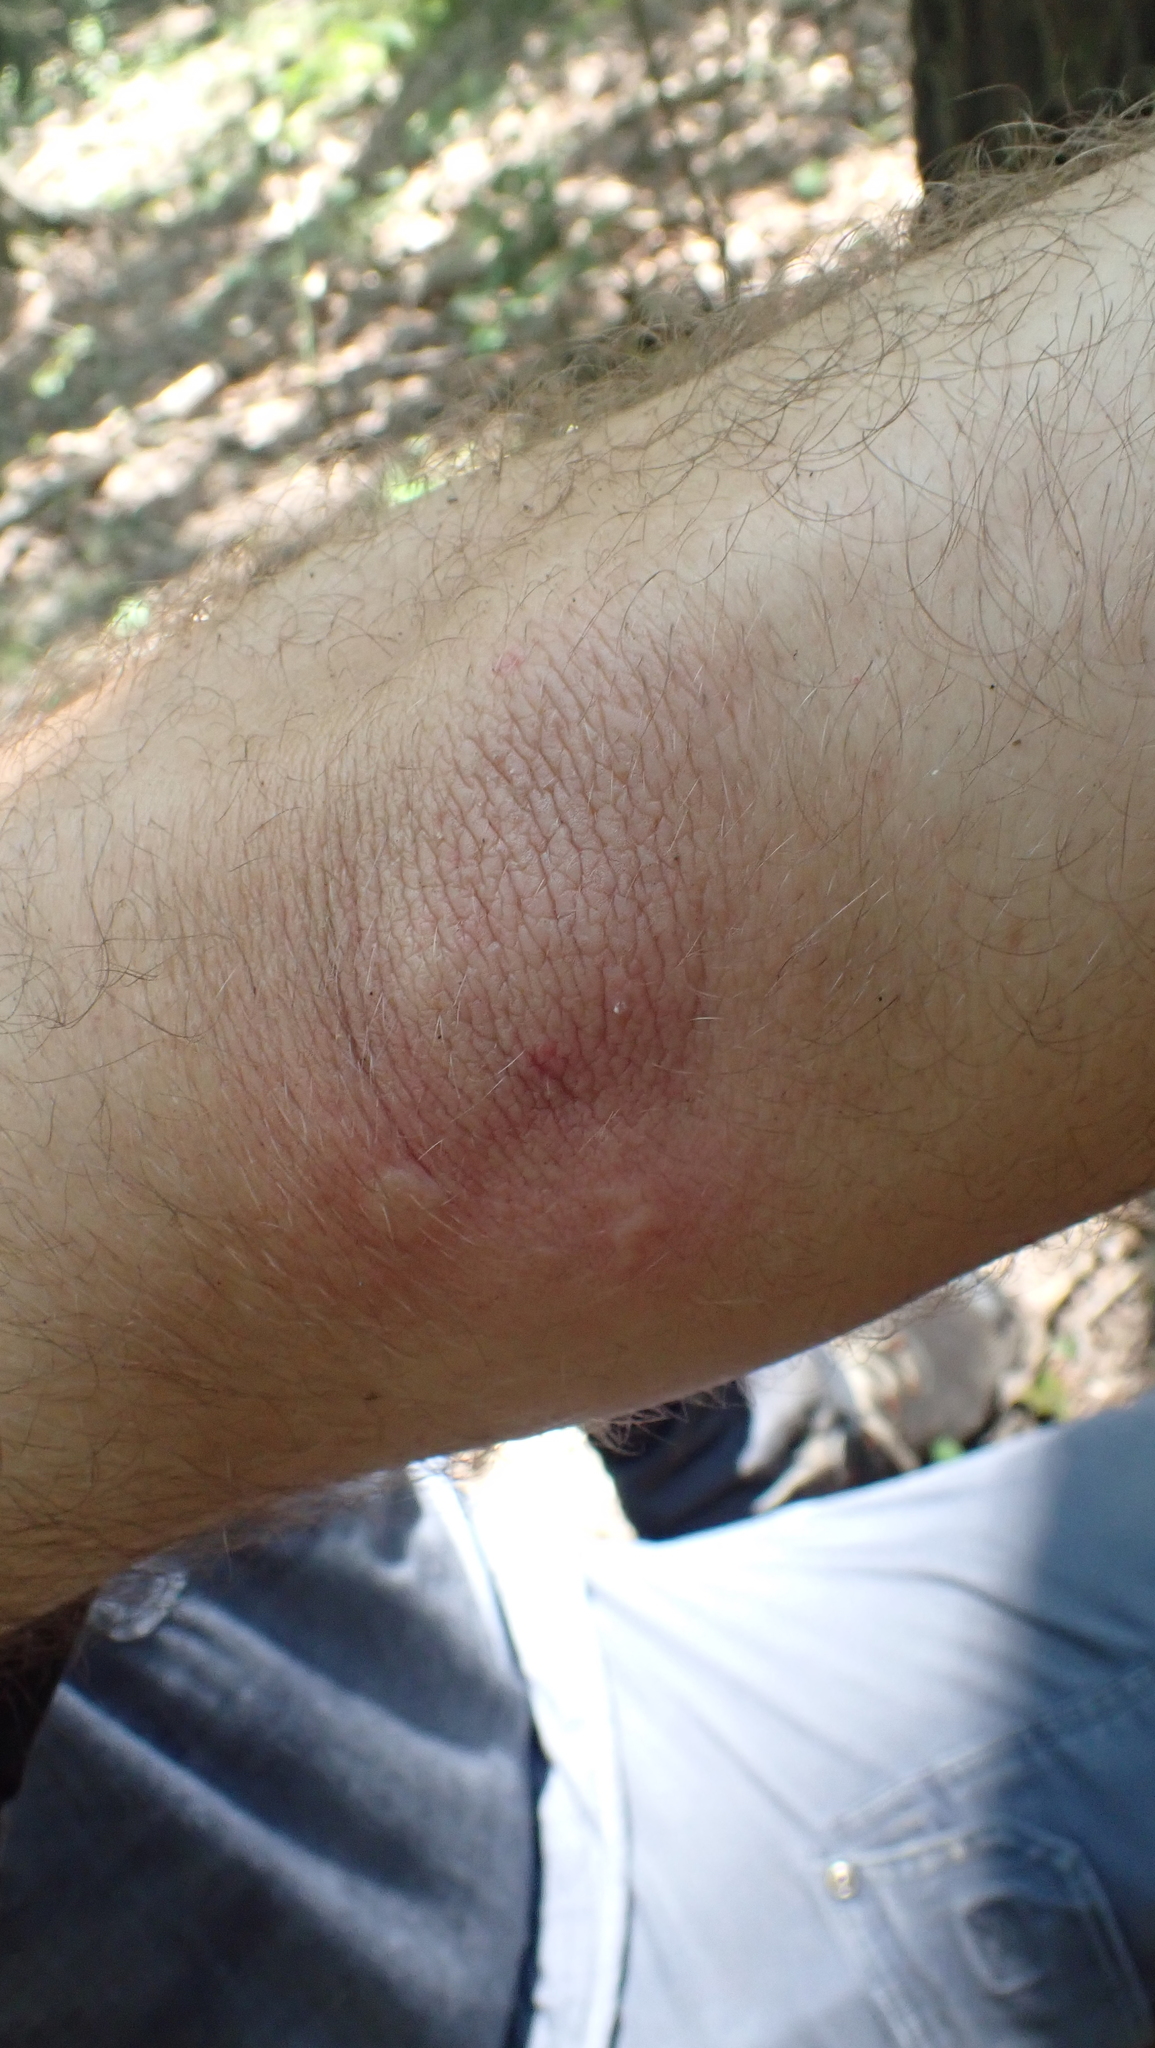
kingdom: Animalia
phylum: Arthropoda
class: Insecta
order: Lepidoptera
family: Megalopygidae
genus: Megalopyge
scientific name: Megalopyge crispata
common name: Black-waved flannel moth
